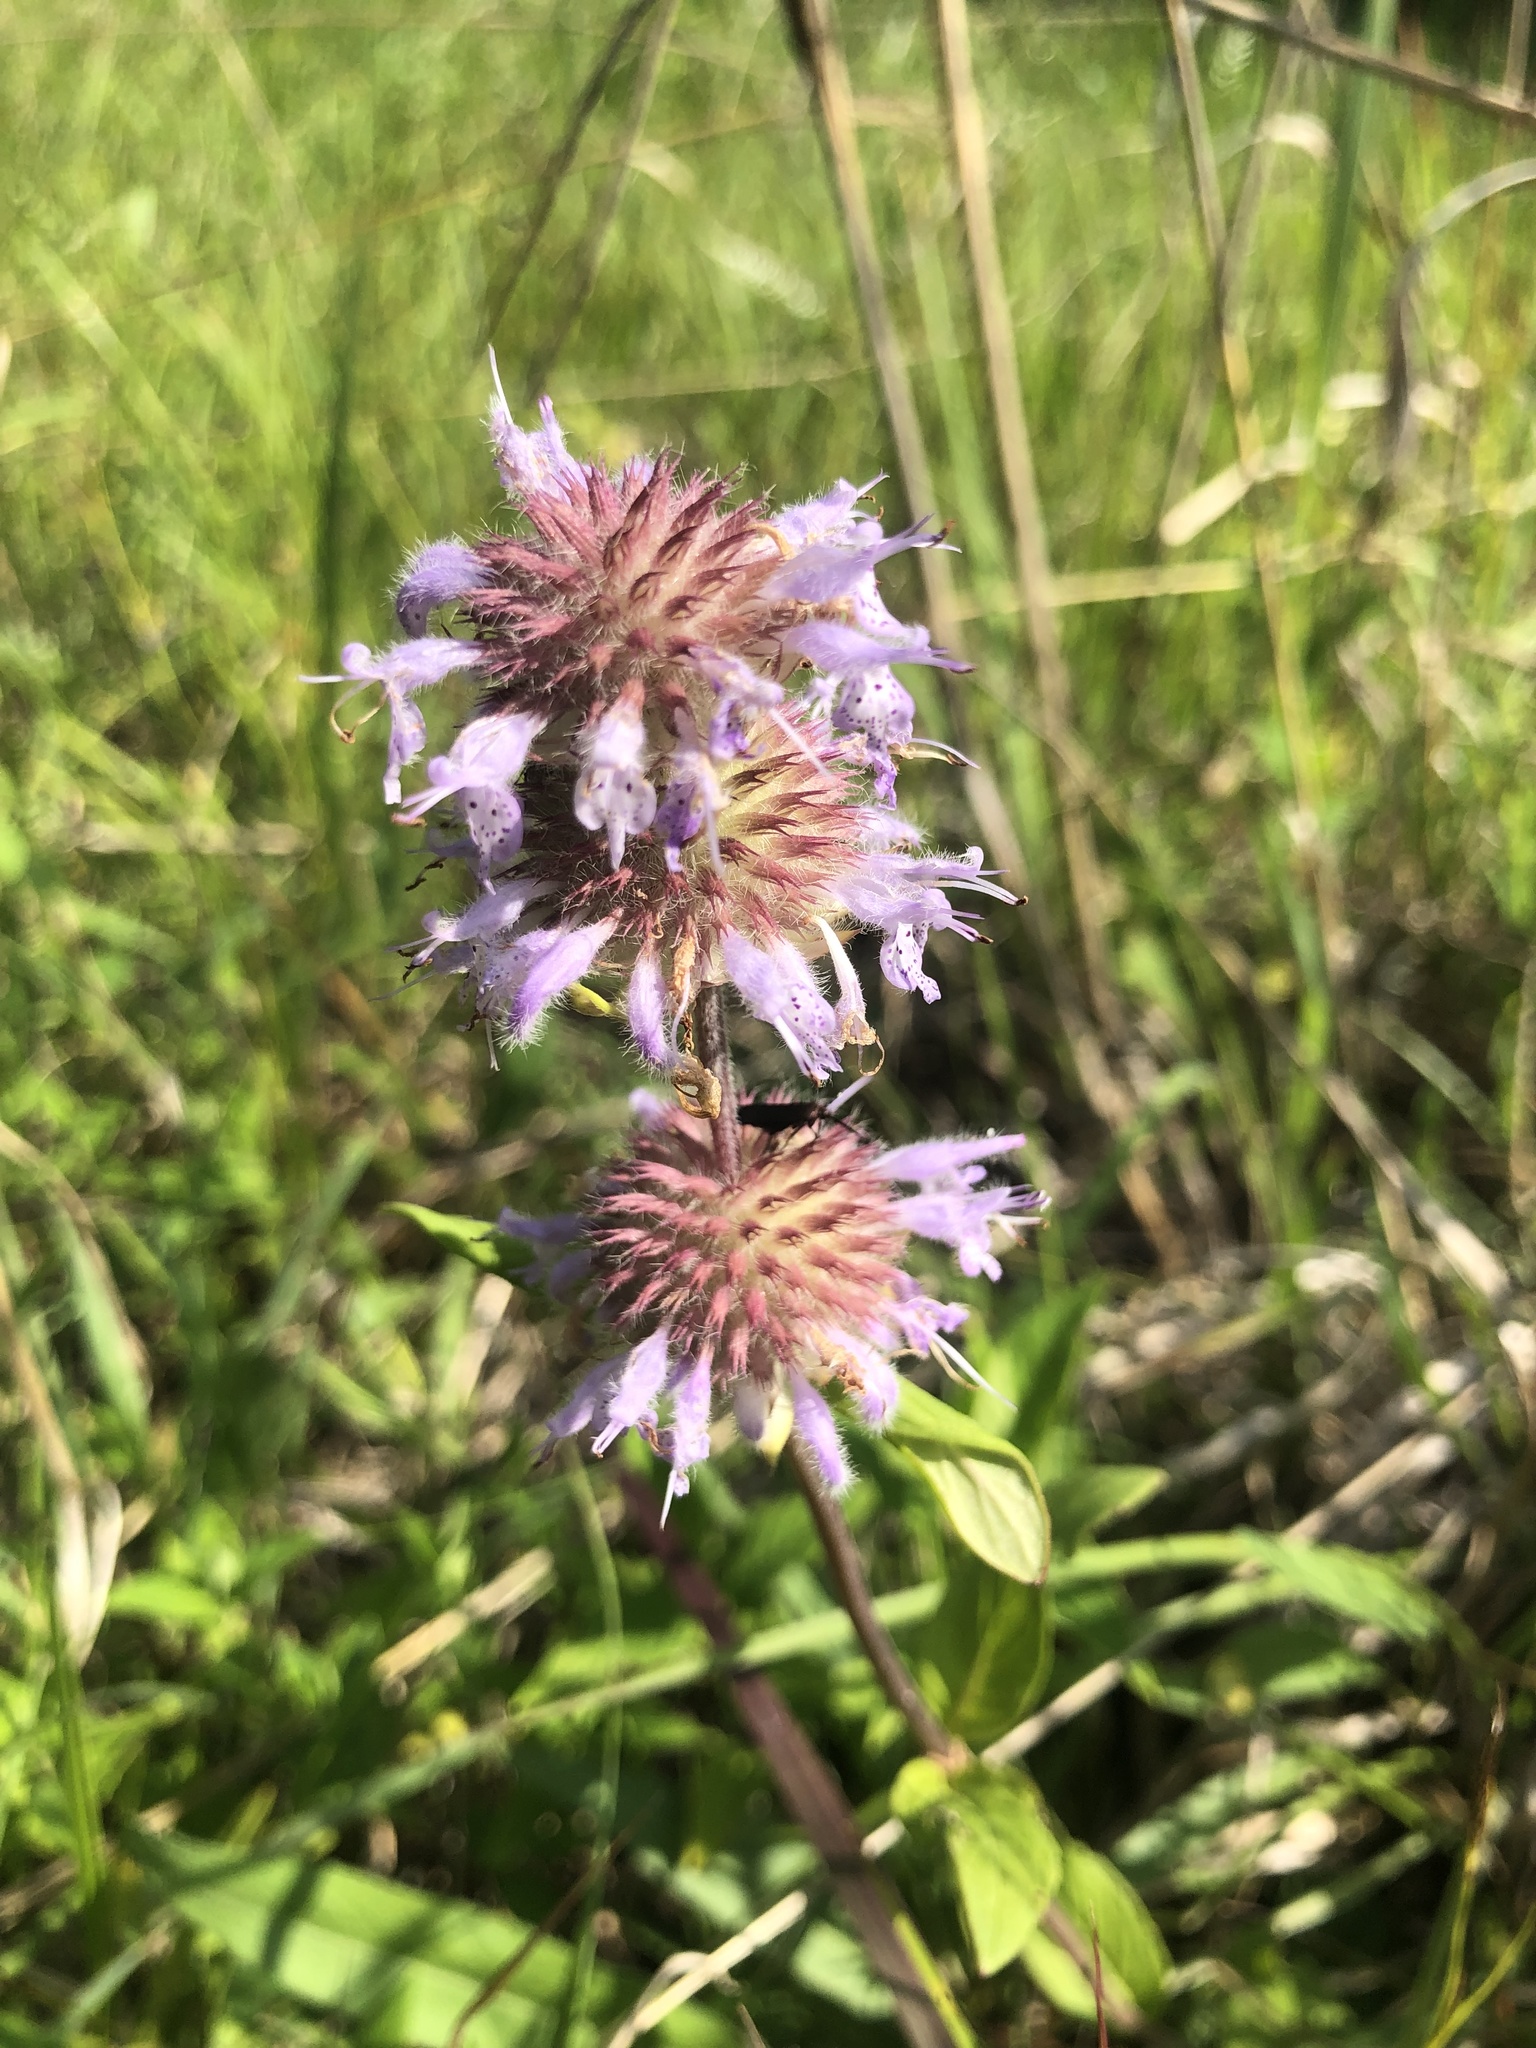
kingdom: Plantae
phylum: Tracheophyta
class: Magnoliopsida
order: Lamiales
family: Lamiaceae
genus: Blephilia
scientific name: Blephilia ciliata
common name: Downy blephilia
